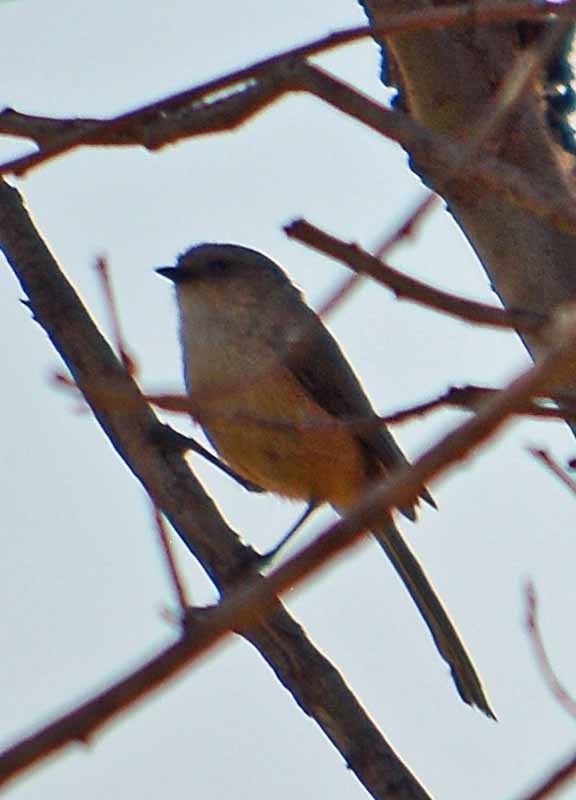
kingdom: Animalia
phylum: Chordata
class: Aves
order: Passeriformes
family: Aegithalidae
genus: Psaltriparus
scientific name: Psaltriparus minimus
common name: American bushtit
